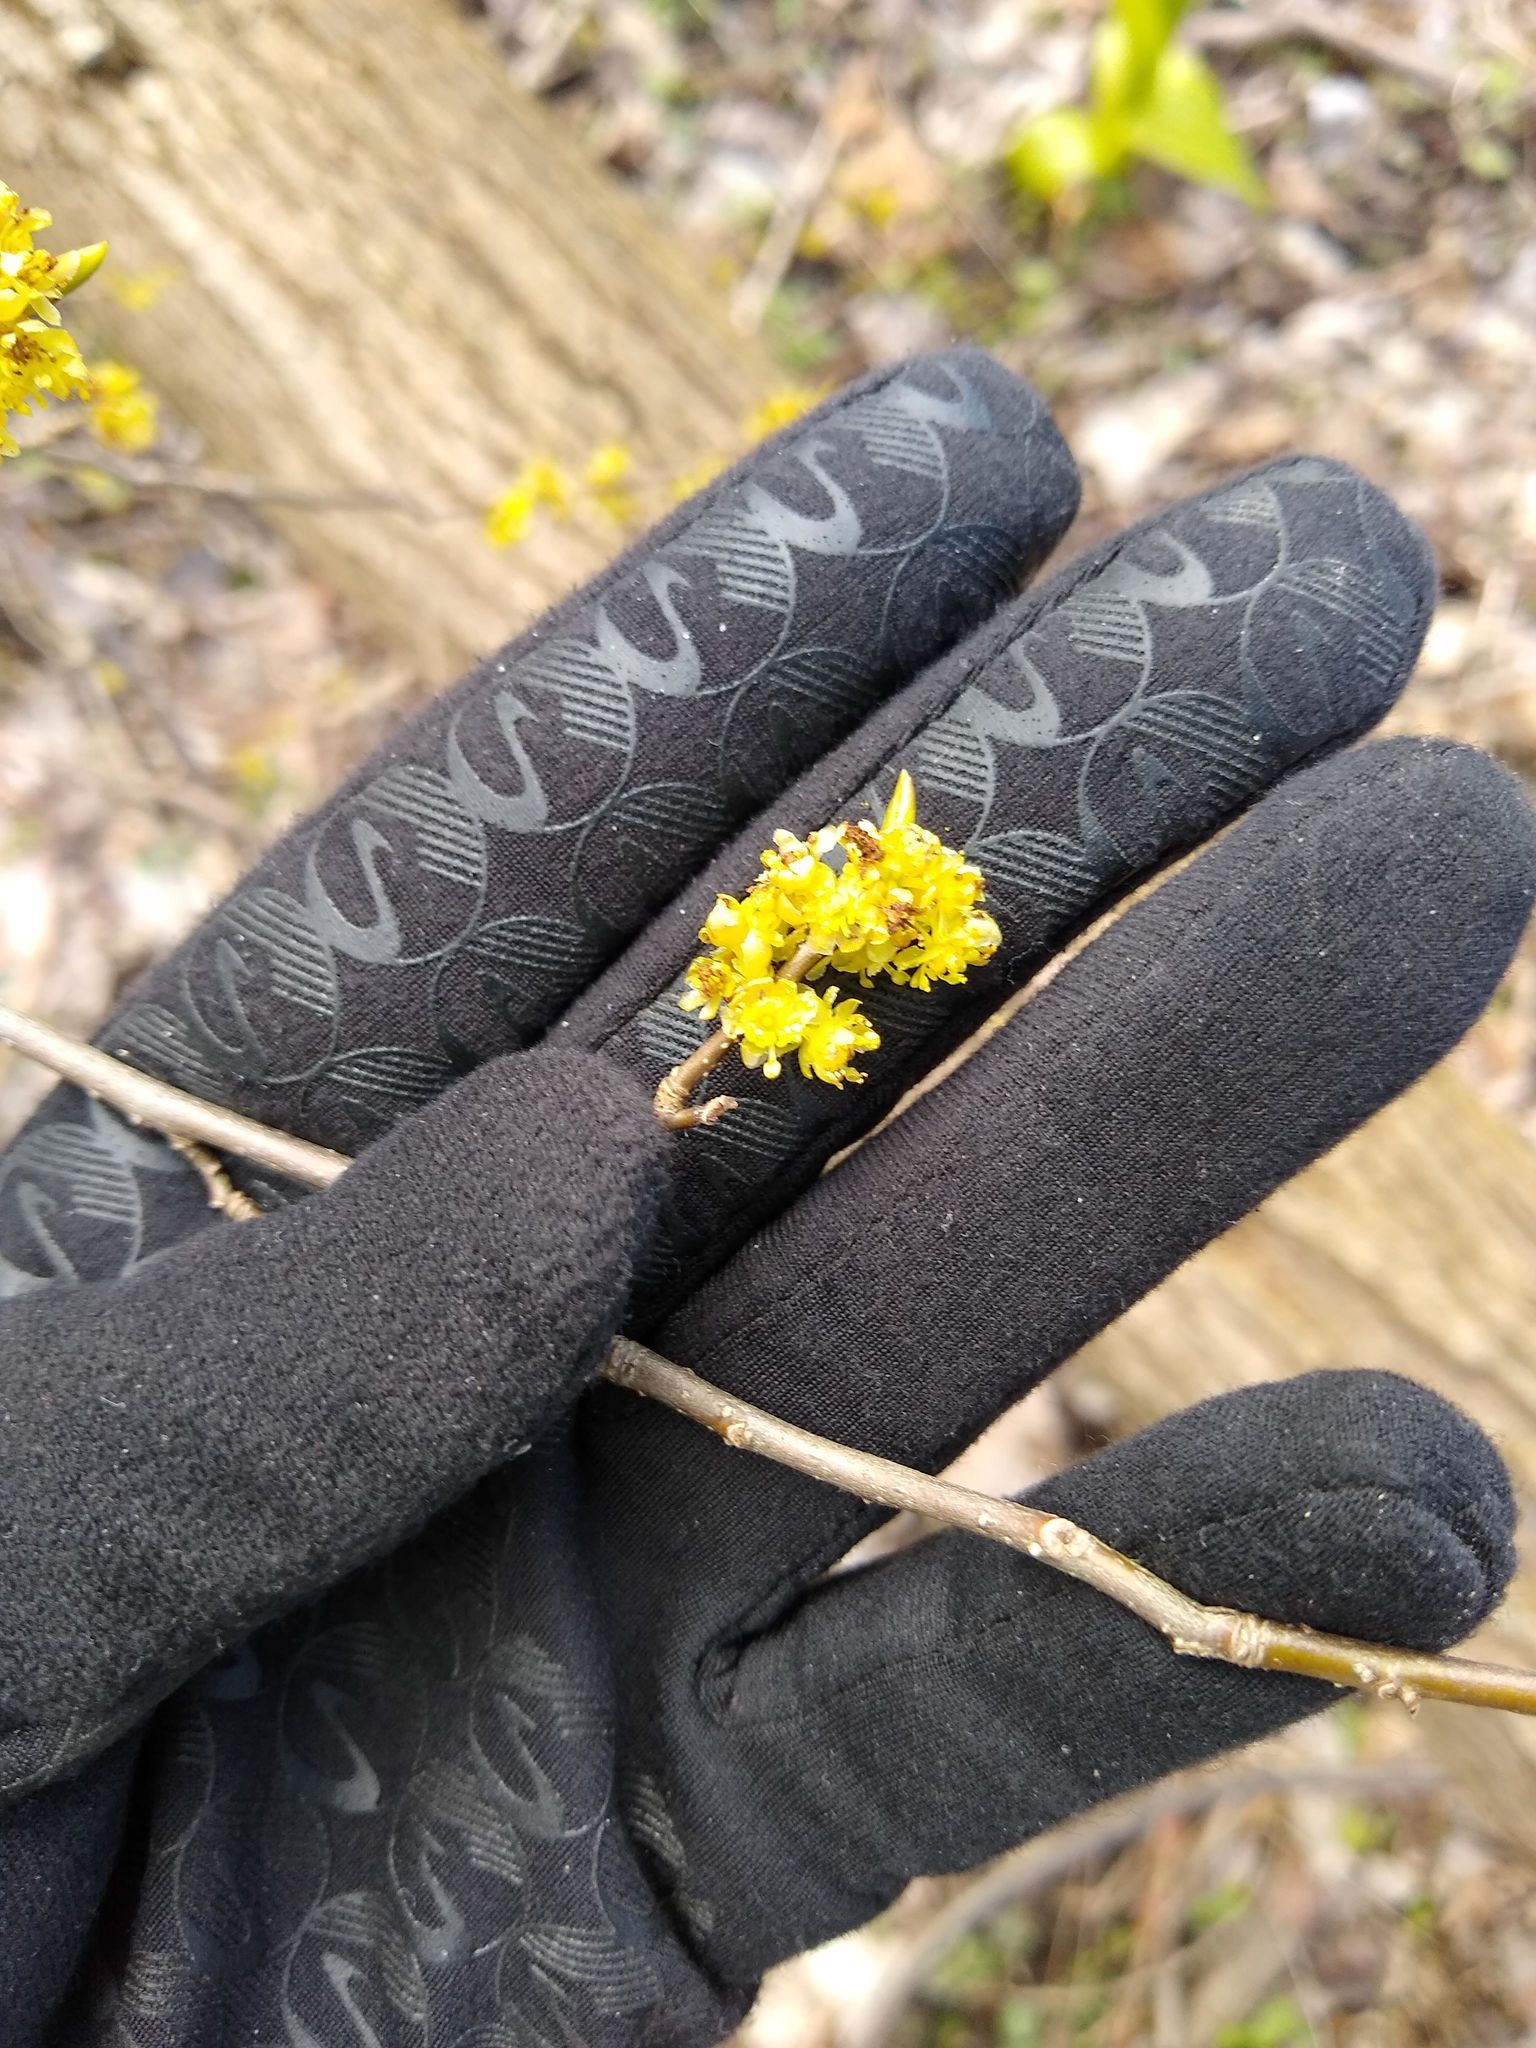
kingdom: Plantae
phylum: Tracheophyta
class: Magnoliopsida
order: Laurales
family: Lauraceae
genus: Lindera
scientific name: Lindera benzoin
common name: Spicebush
